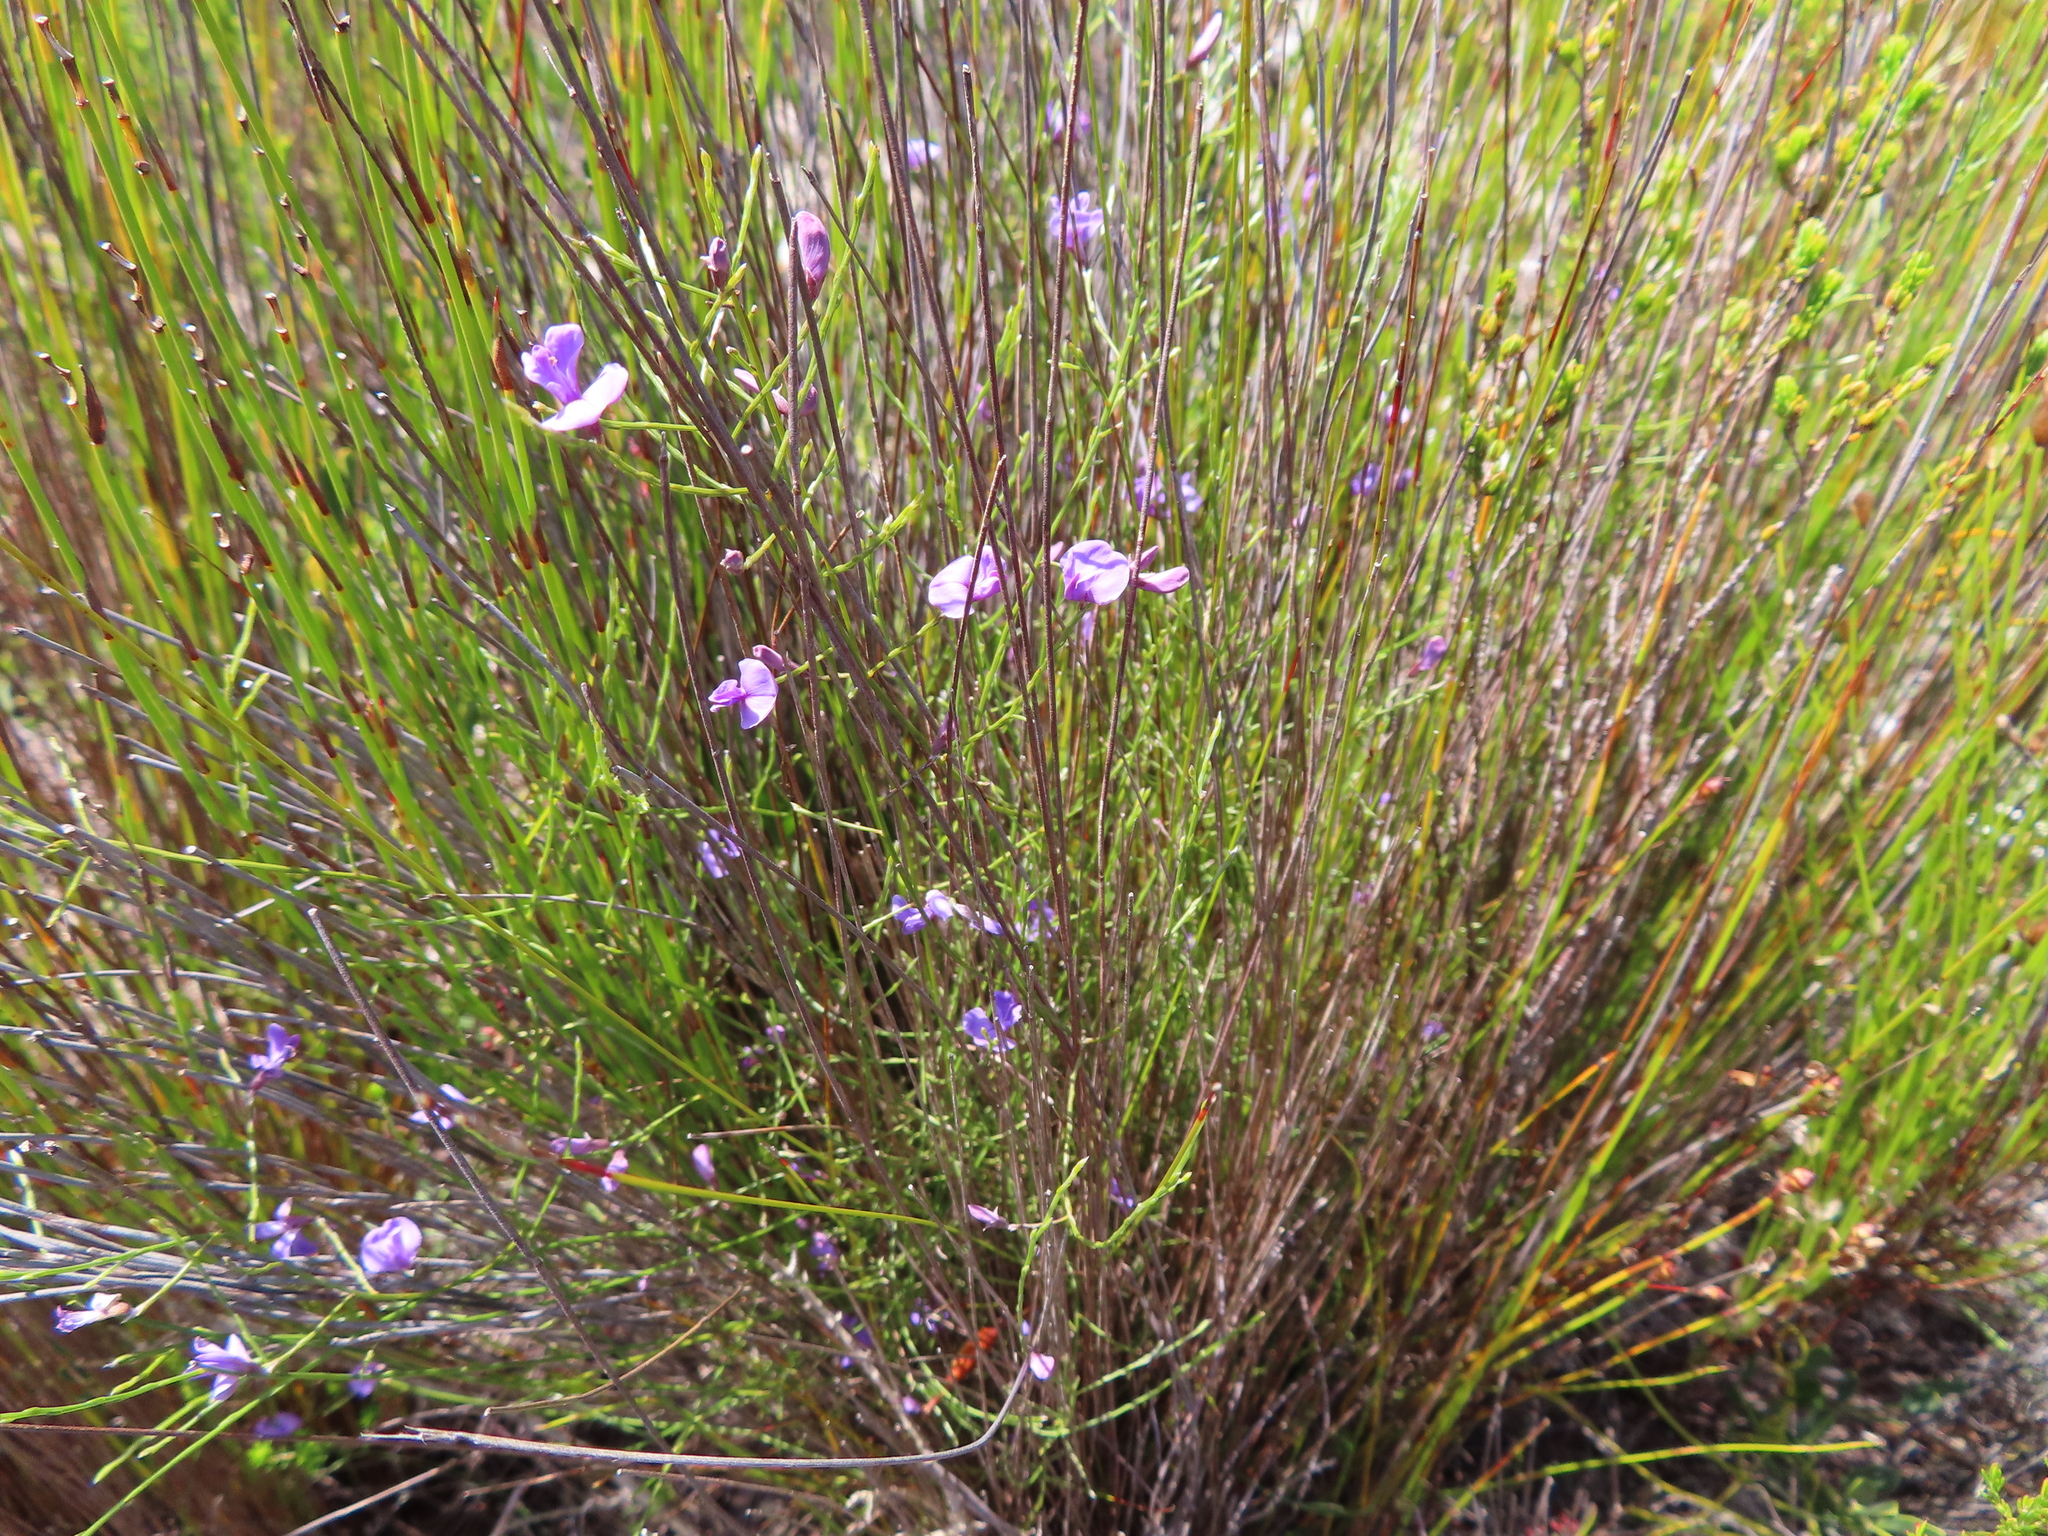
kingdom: Plantae
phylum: Tracheophyta
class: Magnoliopsida
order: Fabales
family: Fabaceae
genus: Amphithalea
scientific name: Amphithalea biovulata
